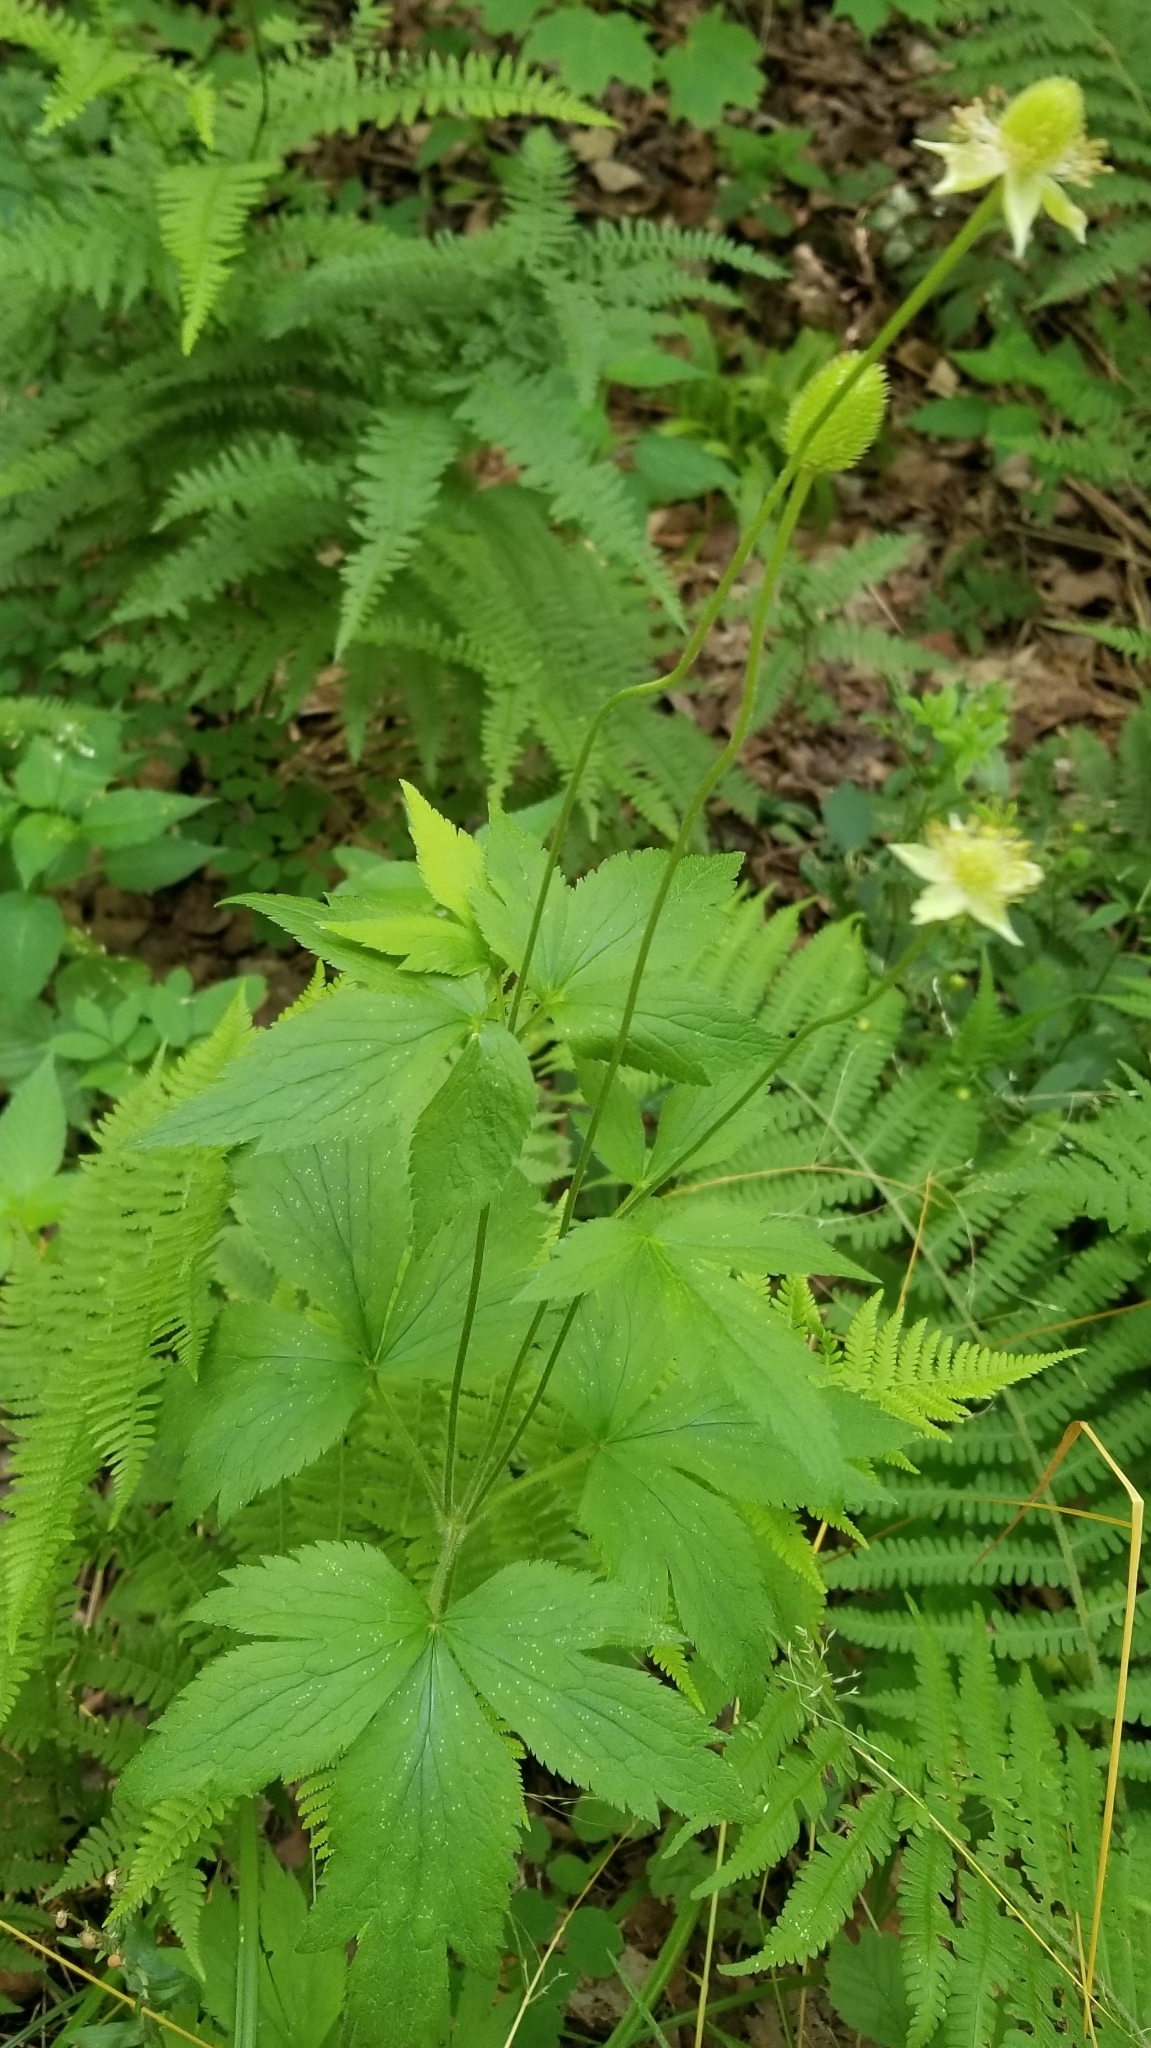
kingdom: Plantae
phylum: Tracheophyta
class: Magnoliopsida
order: Ranunculales
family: Ranunculaceae
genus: Anemone
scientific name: Anemone virginiana
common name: Tall anemone
